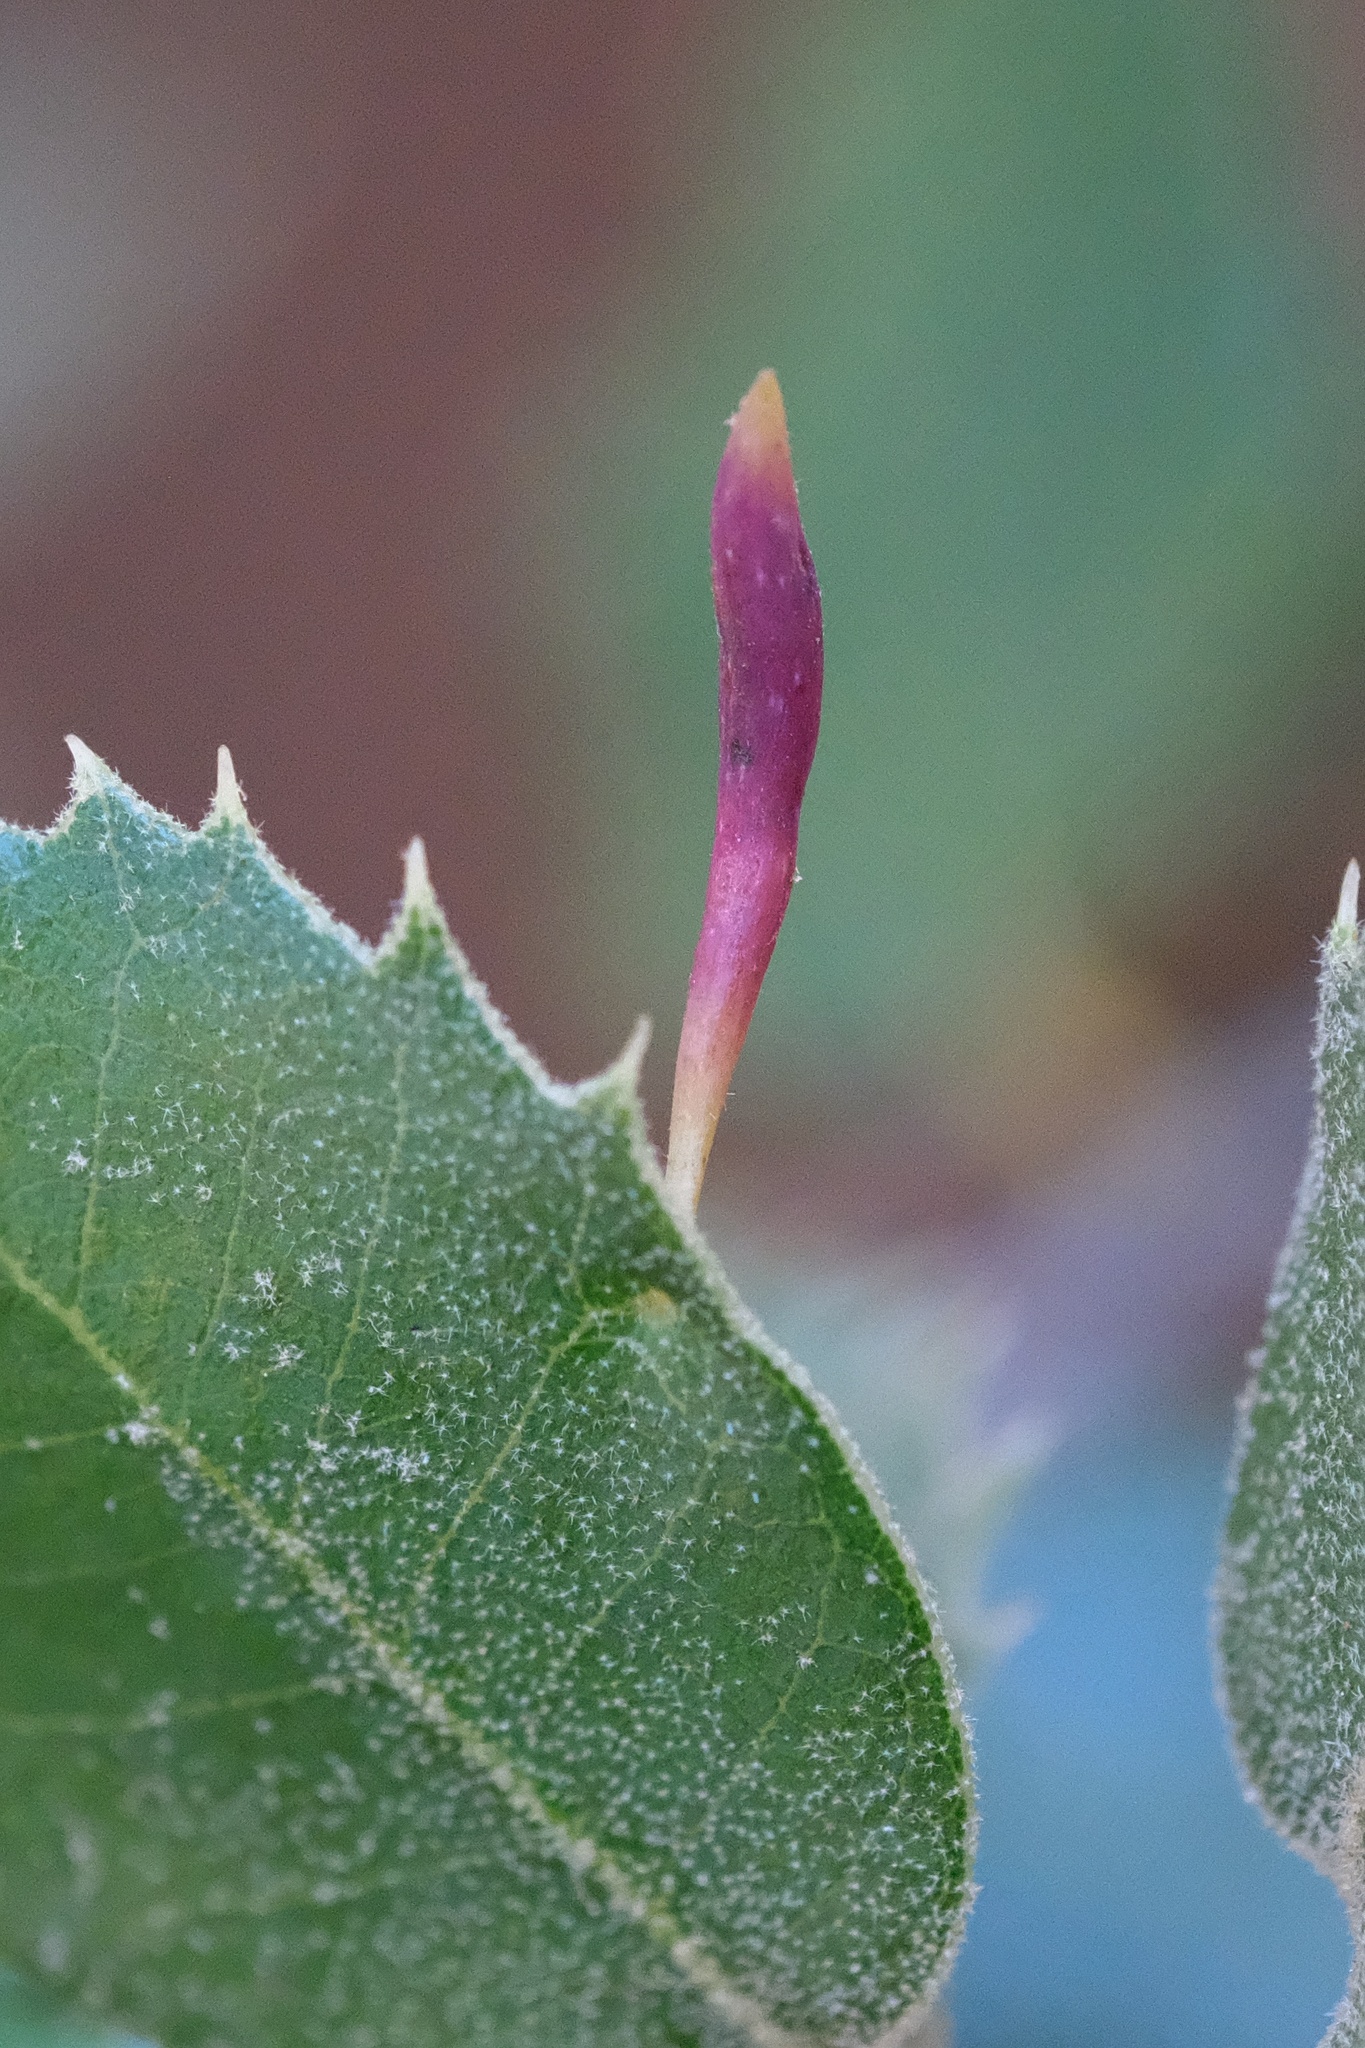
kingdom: Animalia
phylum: Arthropoda
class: Insecta
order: Hymenoptera
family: Cynipidae
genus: Heteroecus
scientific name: Heteroecus
